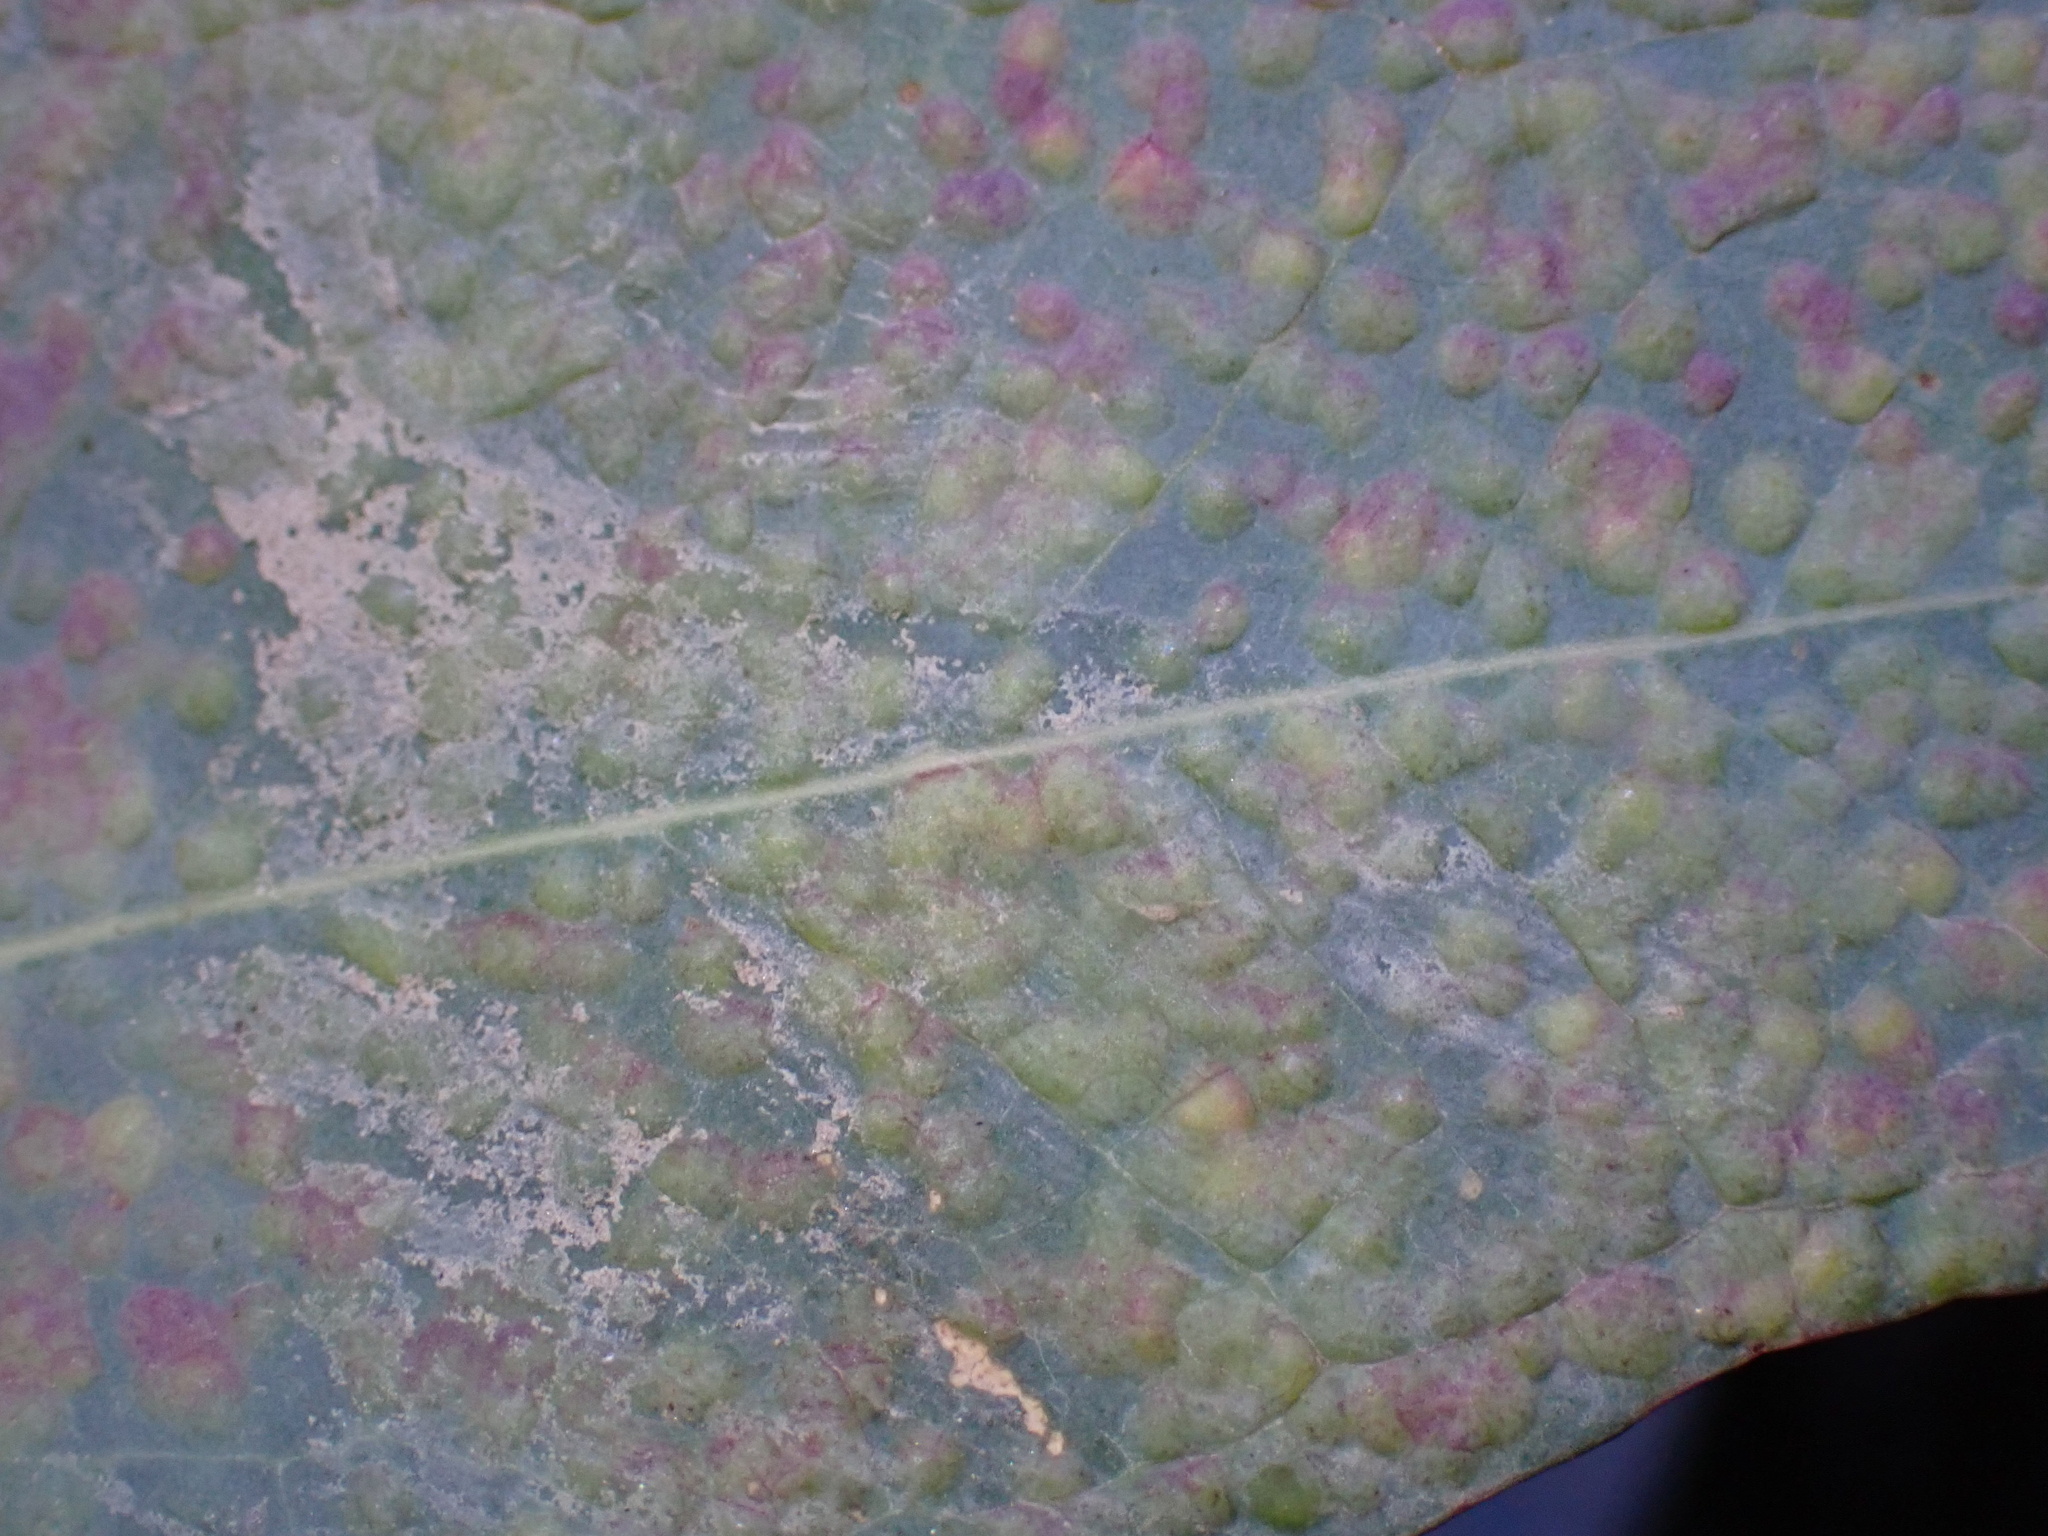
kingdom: Animalia
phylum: Arthropoda
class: Insecta
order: Hymenoptera
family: Eulophidae
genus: Ophelimus
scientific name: Ophelimus maskelli
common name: Gall wasp
